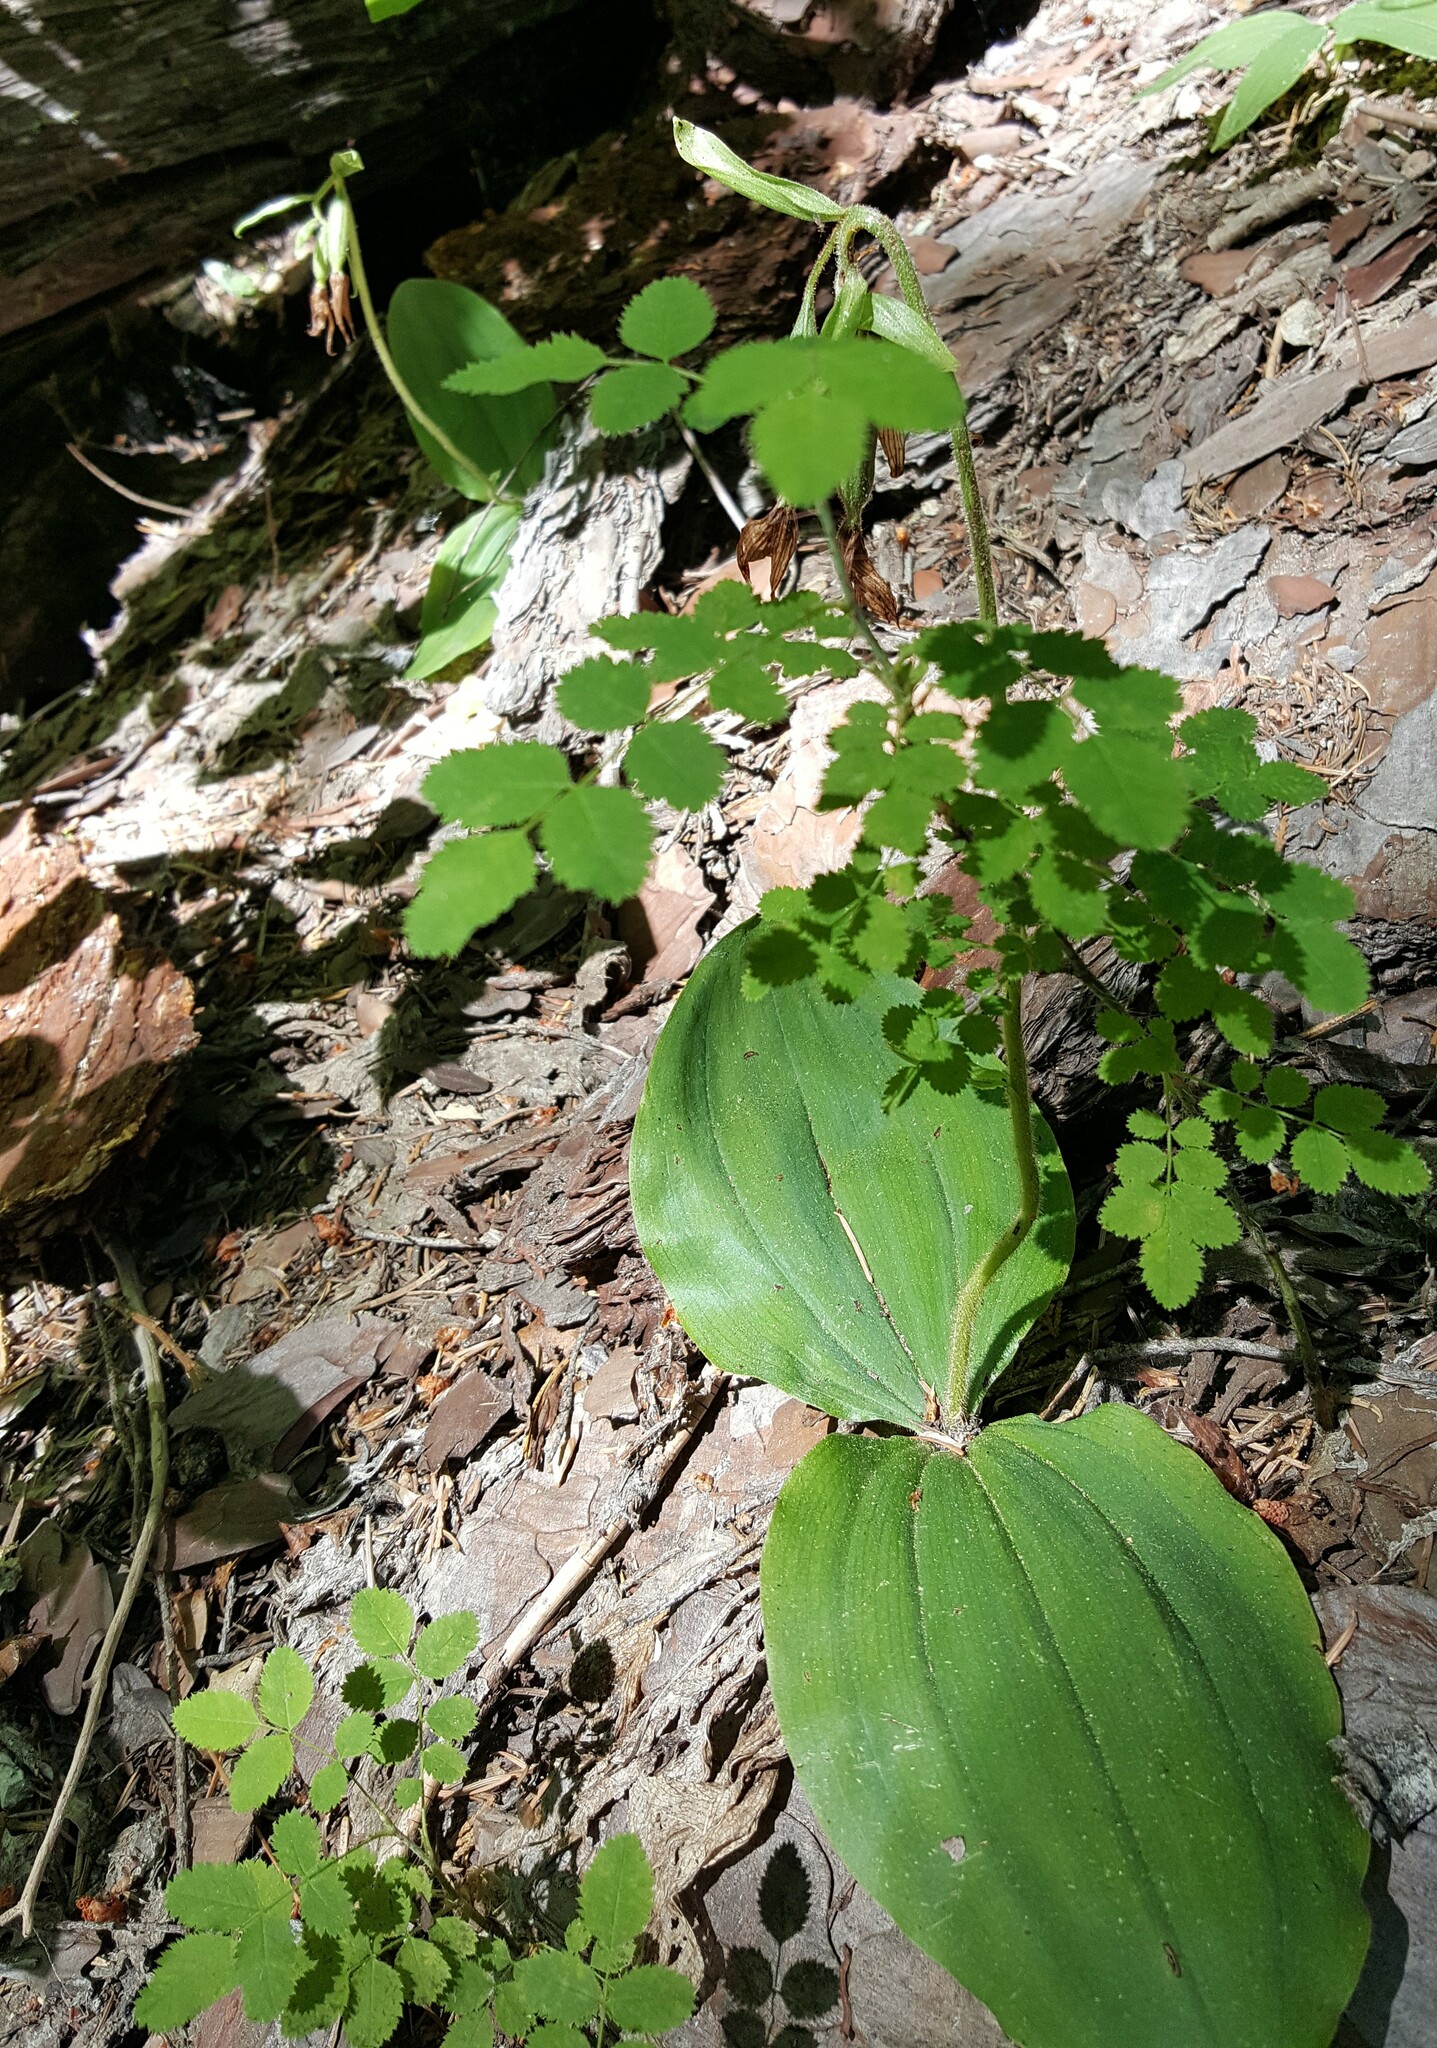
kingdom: Plantae
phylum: Tracheophyta
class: Liliopsida
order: Asparagales
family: Orchidaceae
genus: Cypripedium
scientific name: Cypripedium fasciculatum
